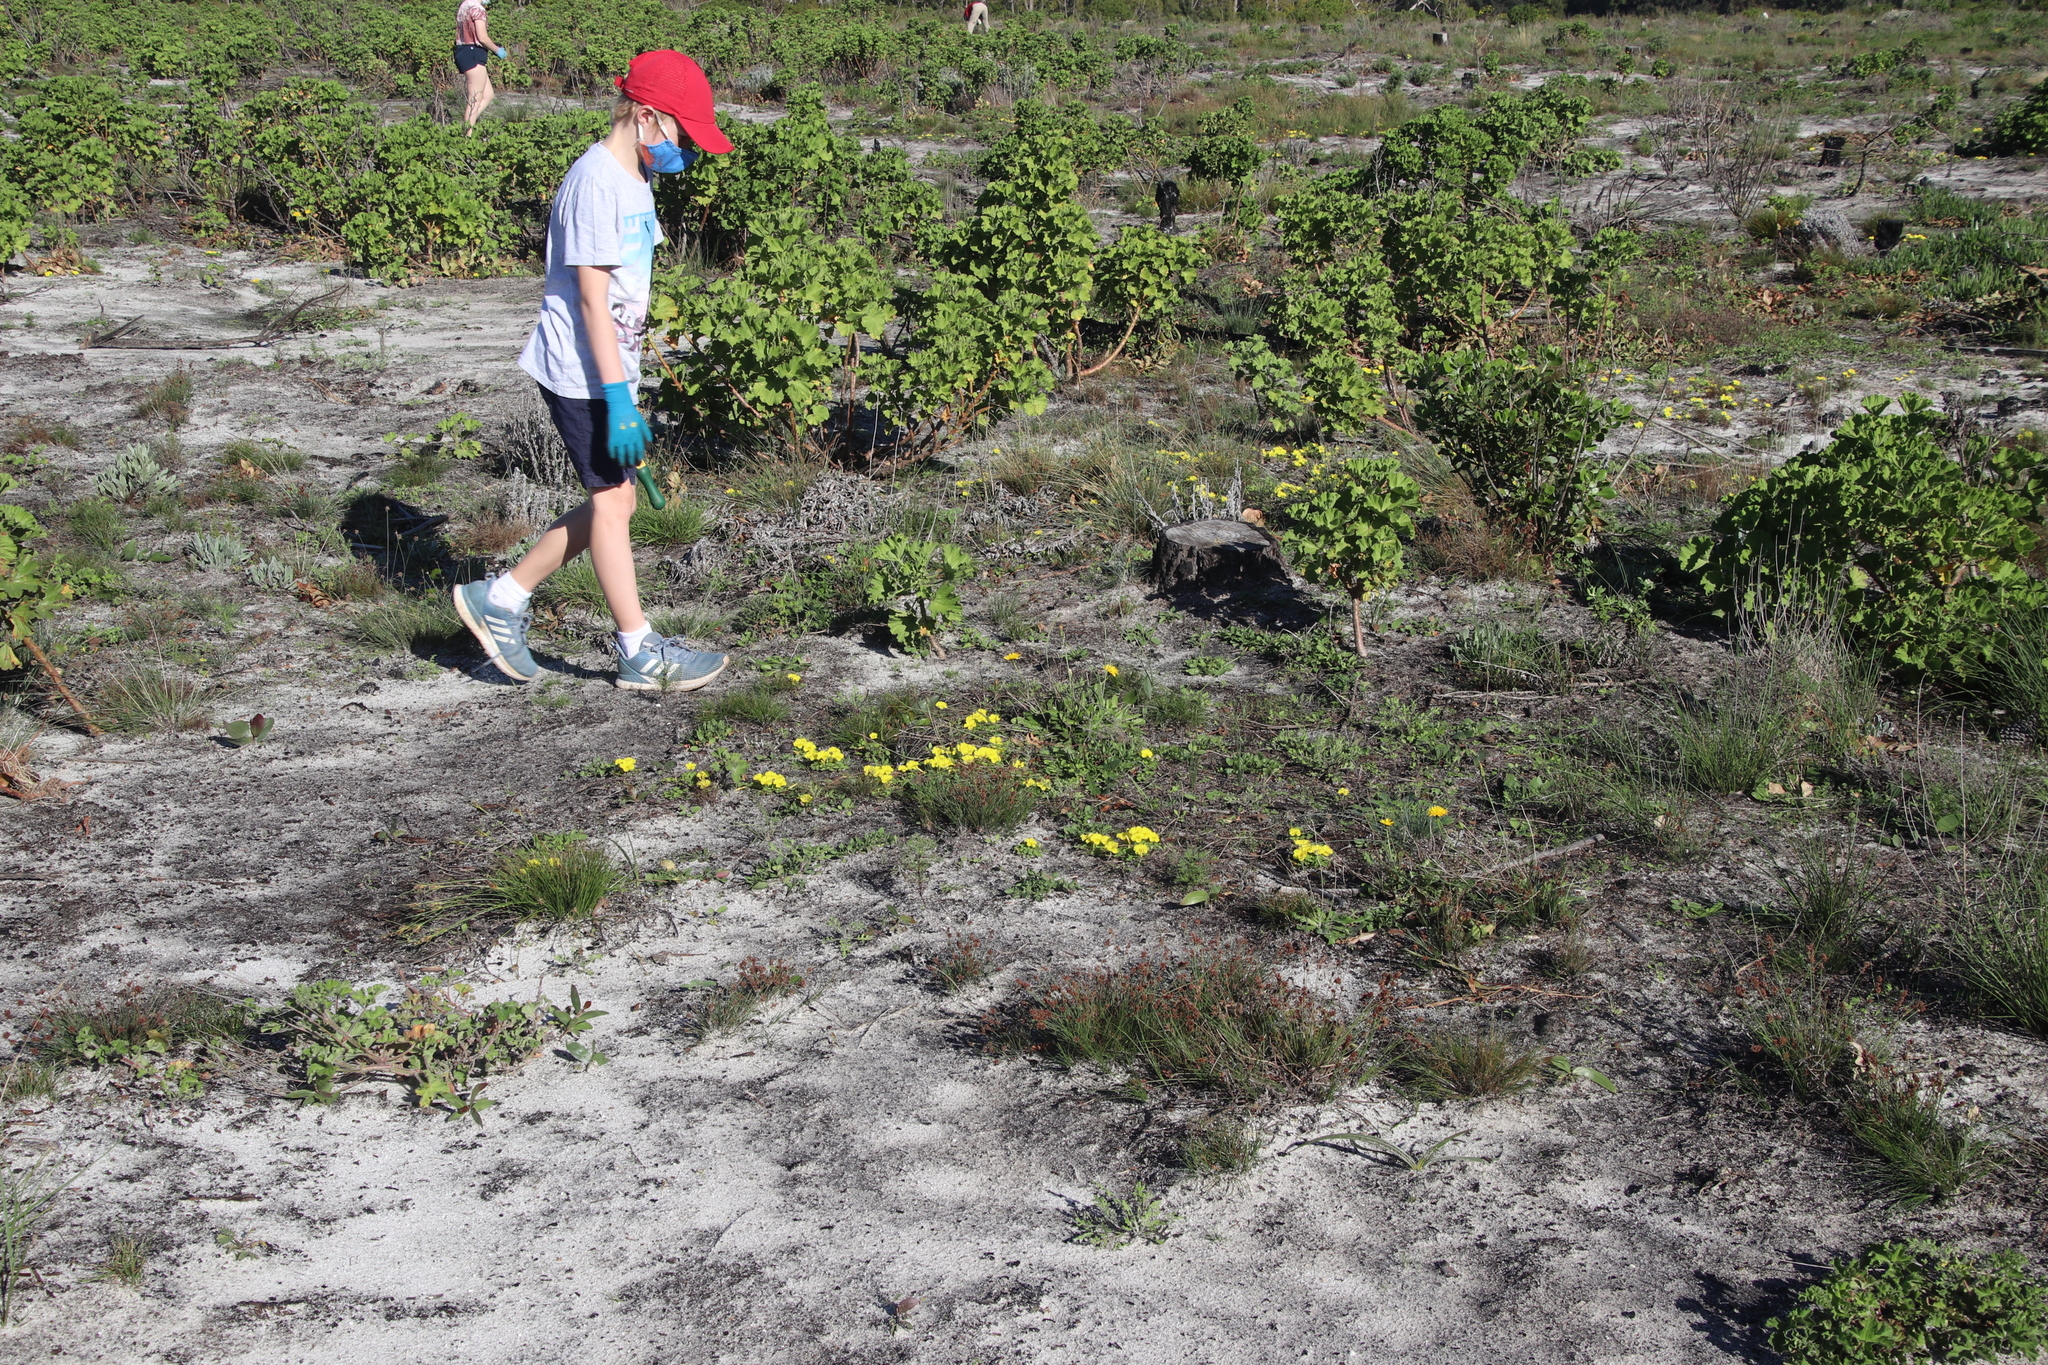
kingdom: Plantae
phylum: Tracheophyta
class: Magnoliopsida
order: Oxalidales
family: Oxalidaceae
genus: Oxalis
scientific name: Oxalis luteola
